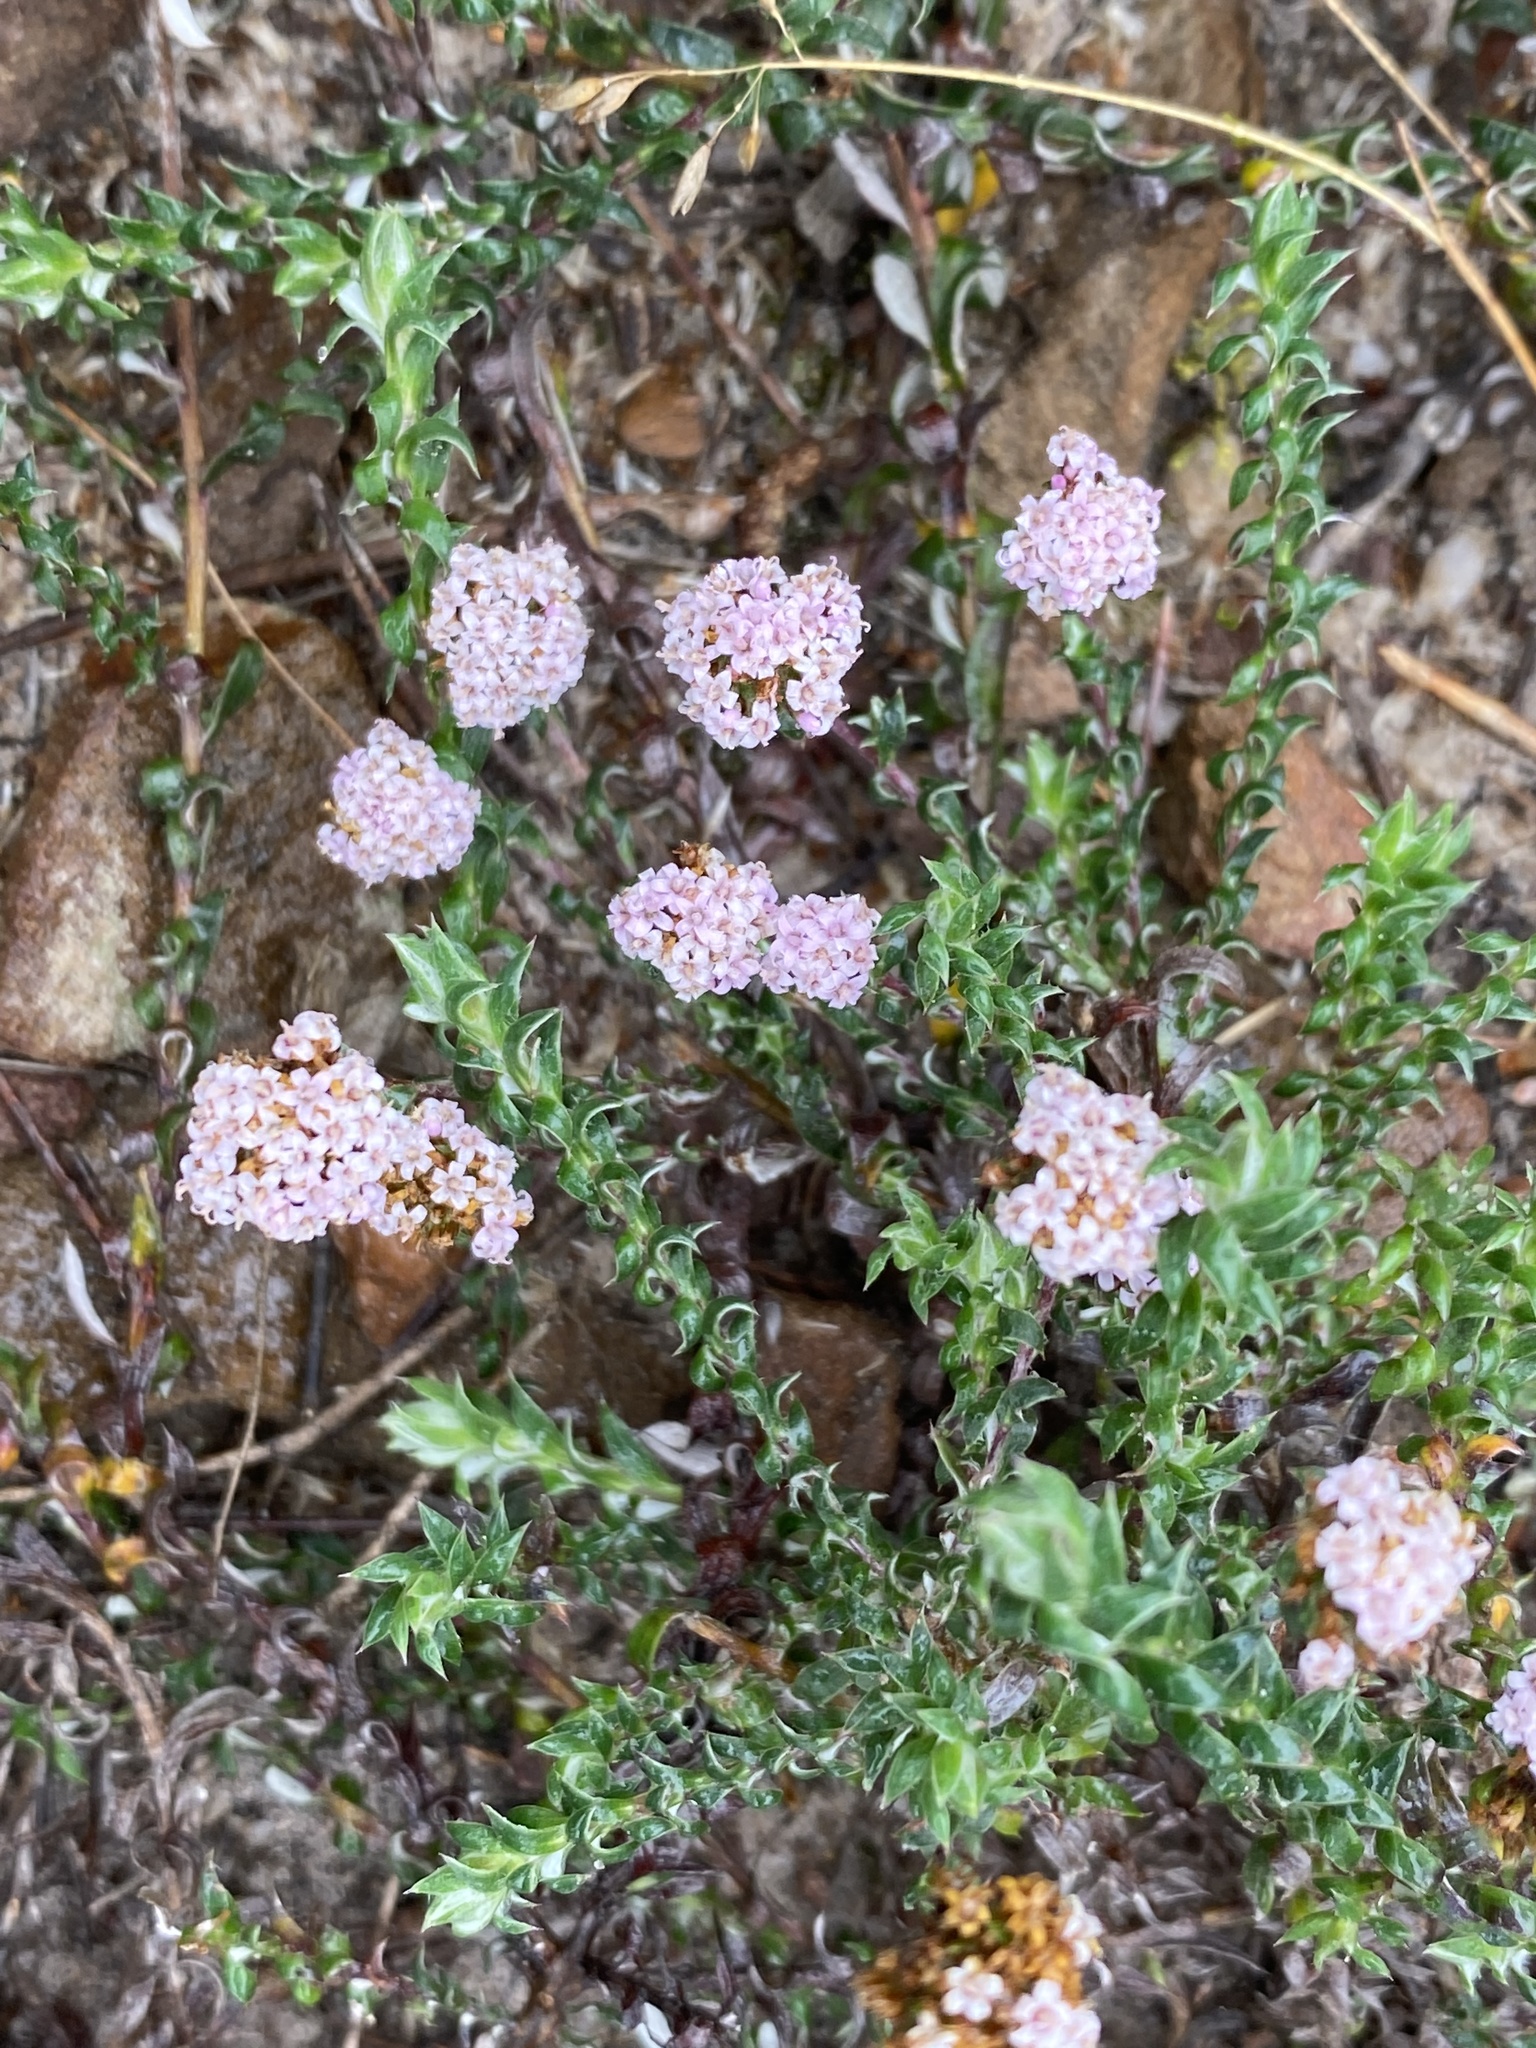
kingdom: Plantae
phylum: Tracheophyta
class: Magnoliopsida
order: Asterales
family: Asteraceae
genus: Stoebe
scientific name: Stoebe prostrata
